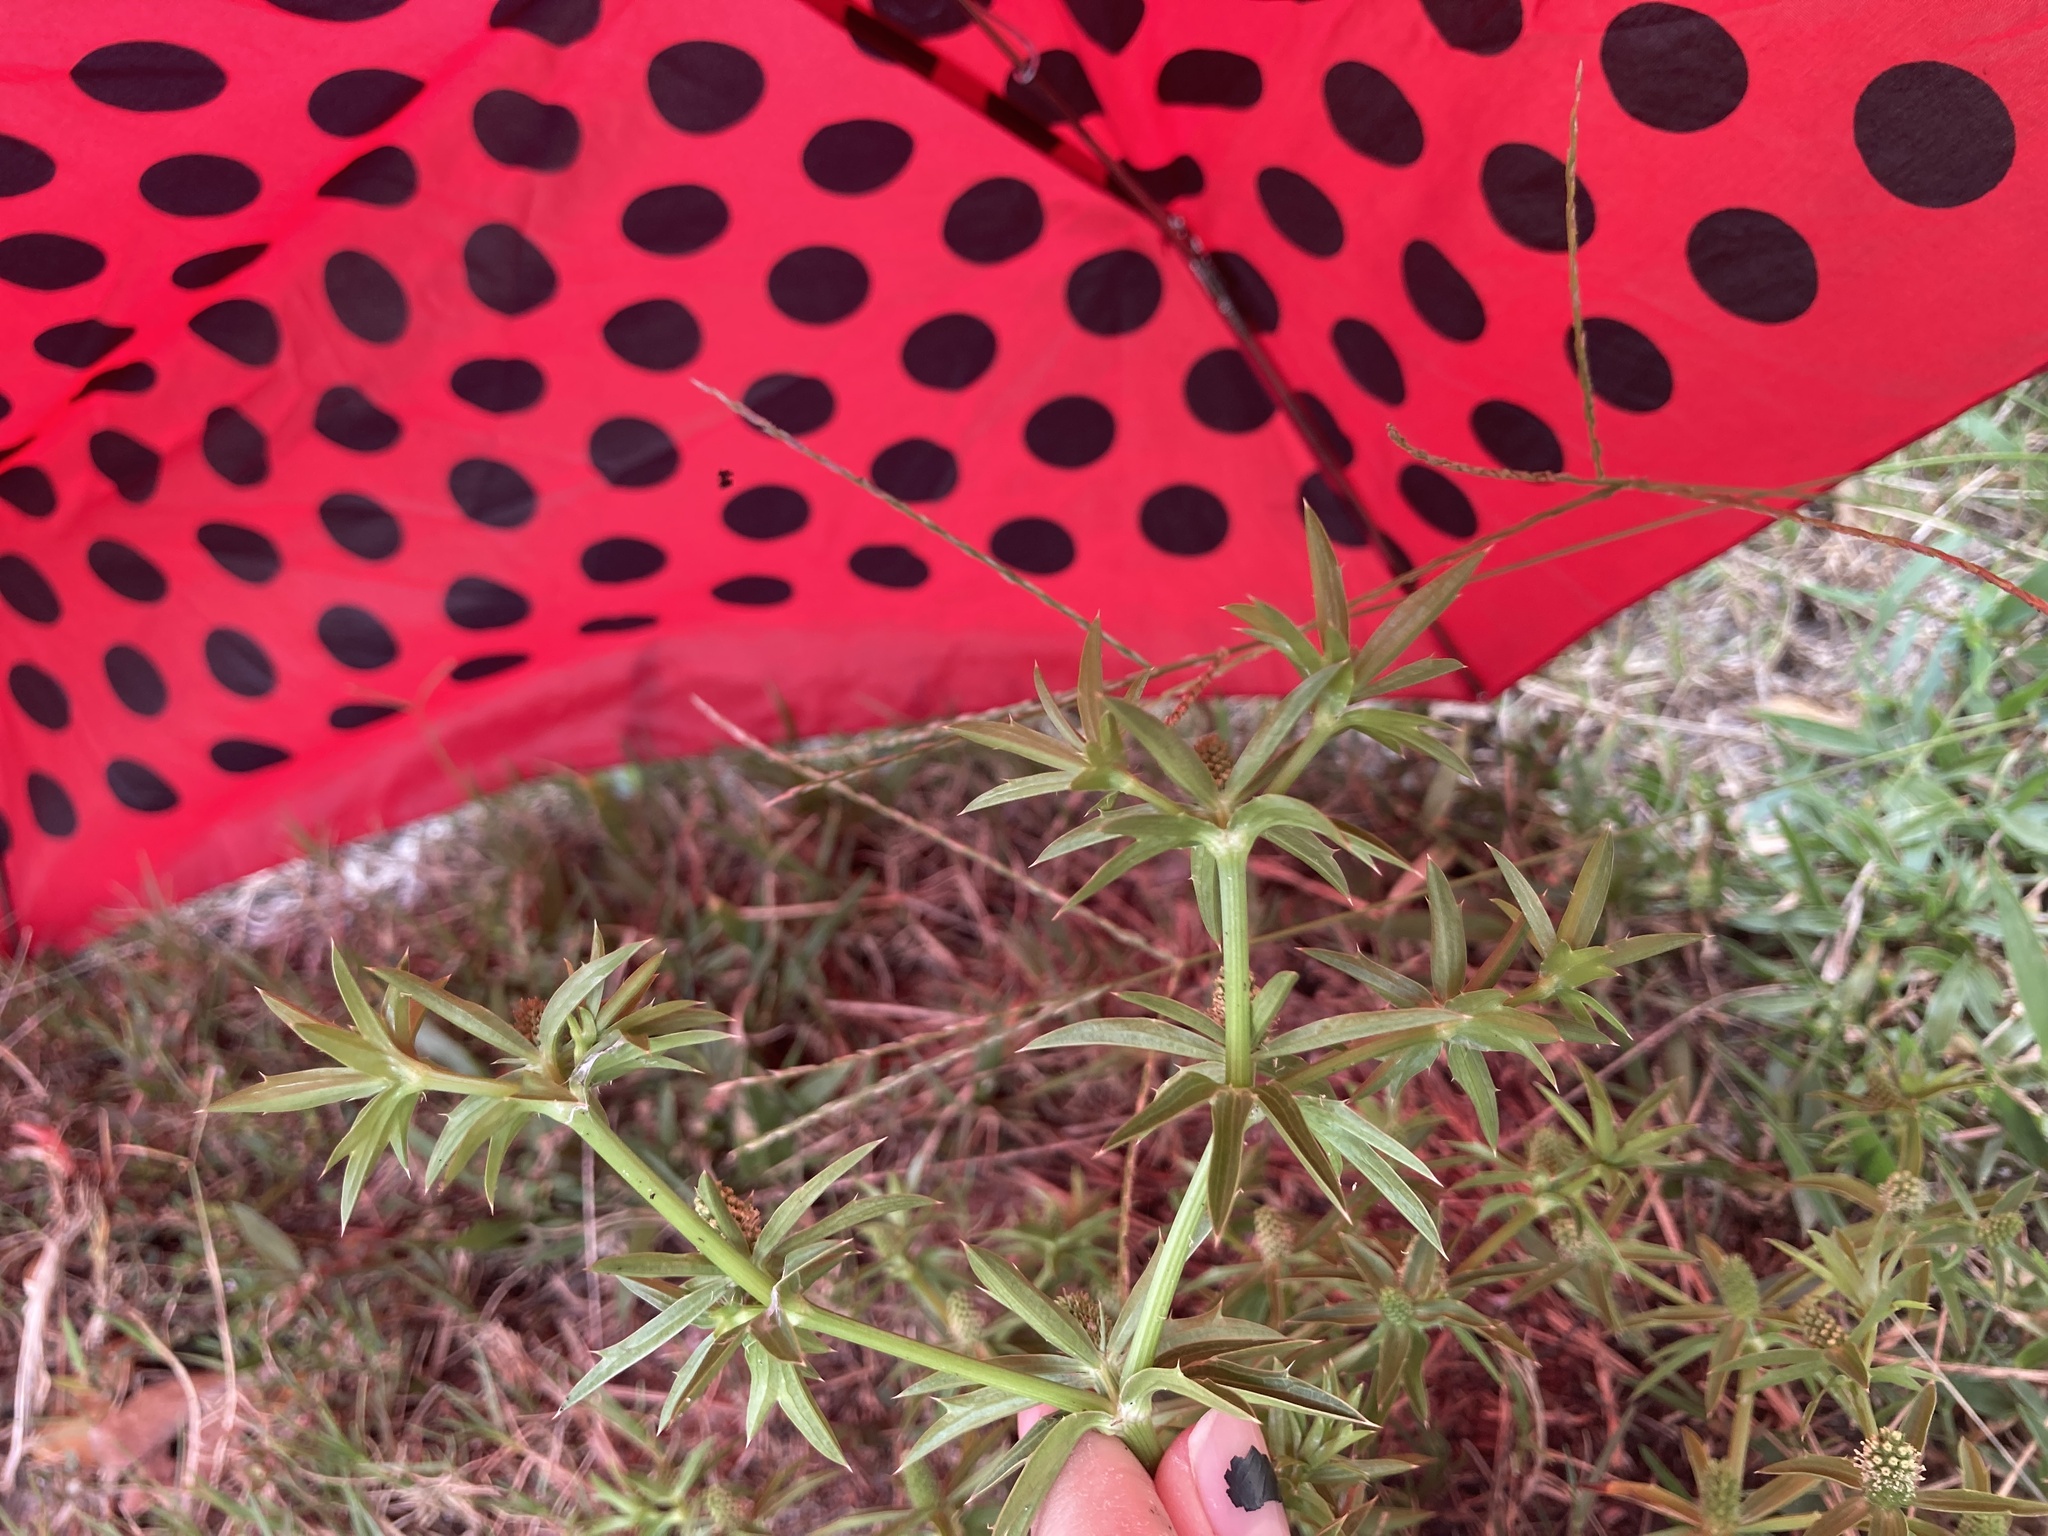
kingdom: Plantae
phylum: Tracheophyta
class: Magnoliopsida
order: Apiales
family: Apiaceae
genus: Eryngium
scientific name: Eryngium foetidum
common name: Fitweed
